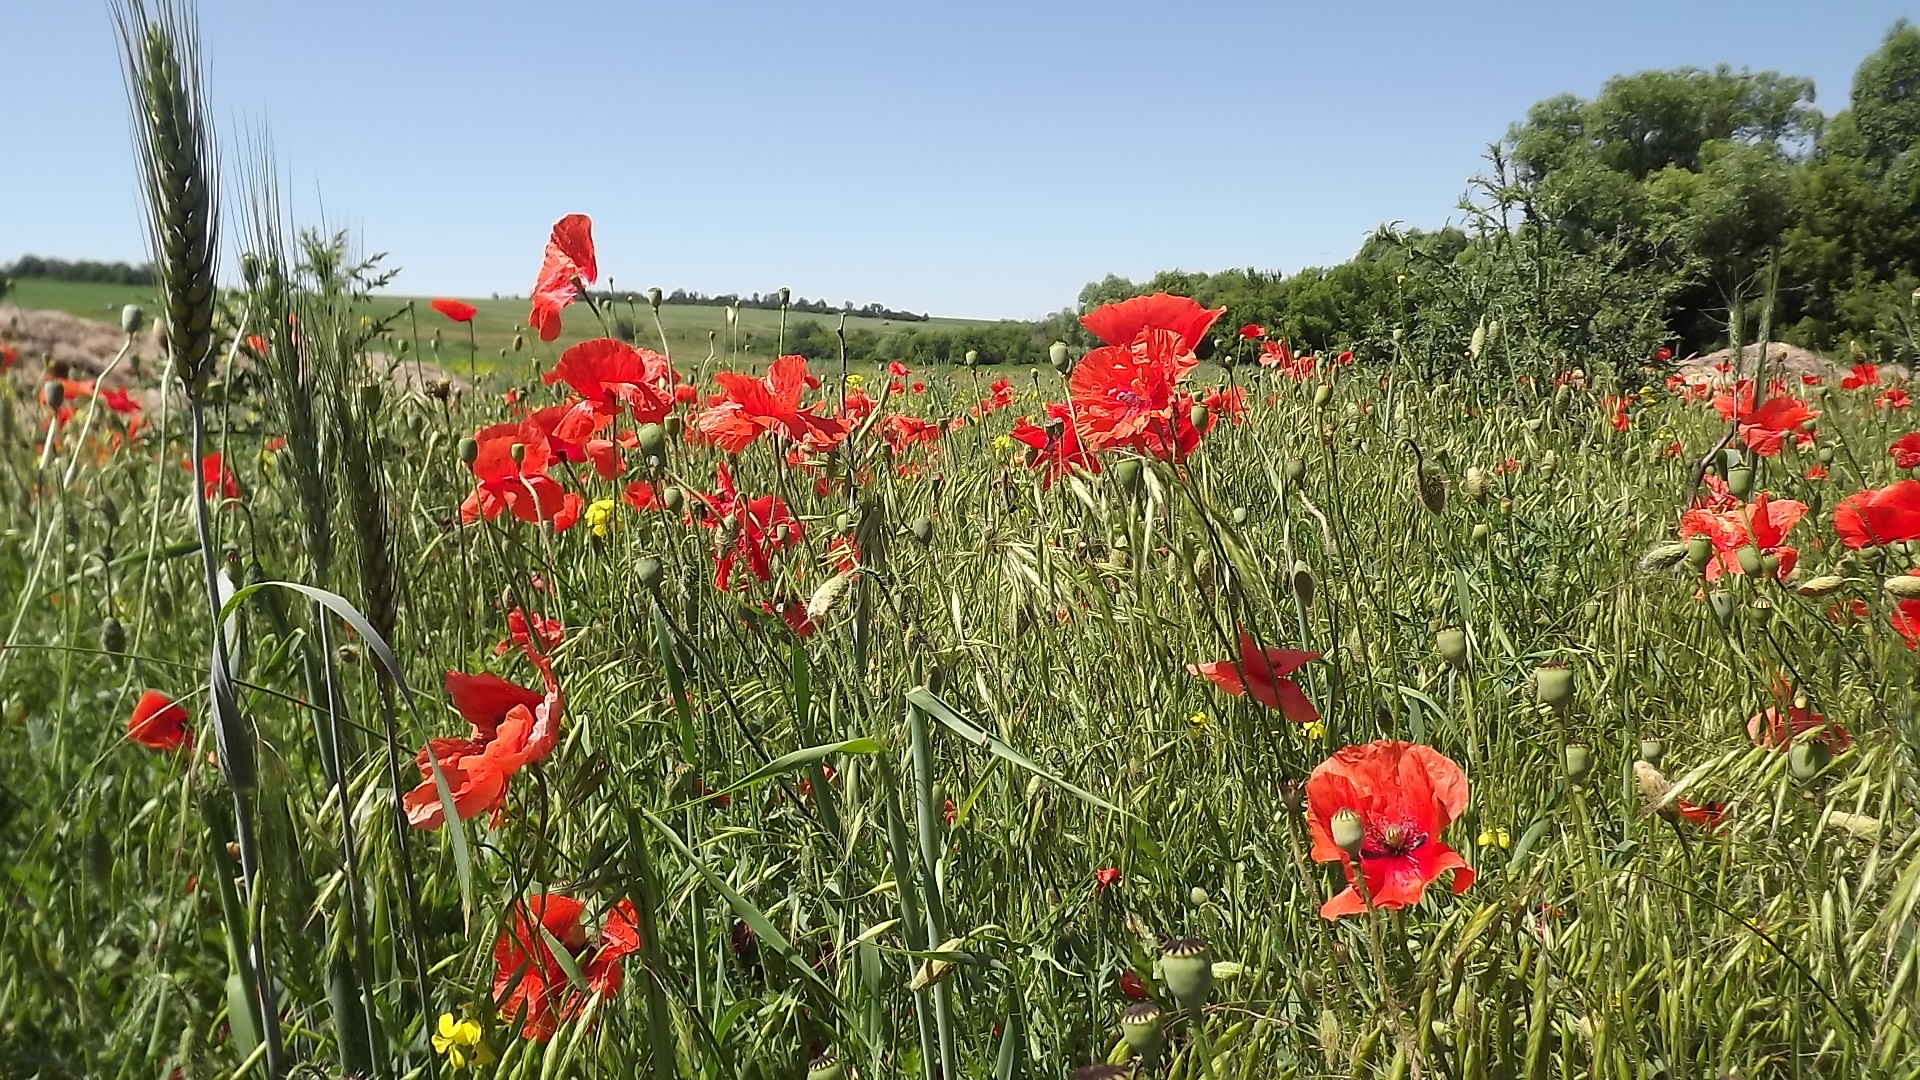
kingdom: Plantae
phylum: Tracheophyta
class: Magnoliopsida
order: Ranunculales
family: Papaveraceae
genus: Papaver
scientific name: Papaver rhoeas
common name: Corn poppy
